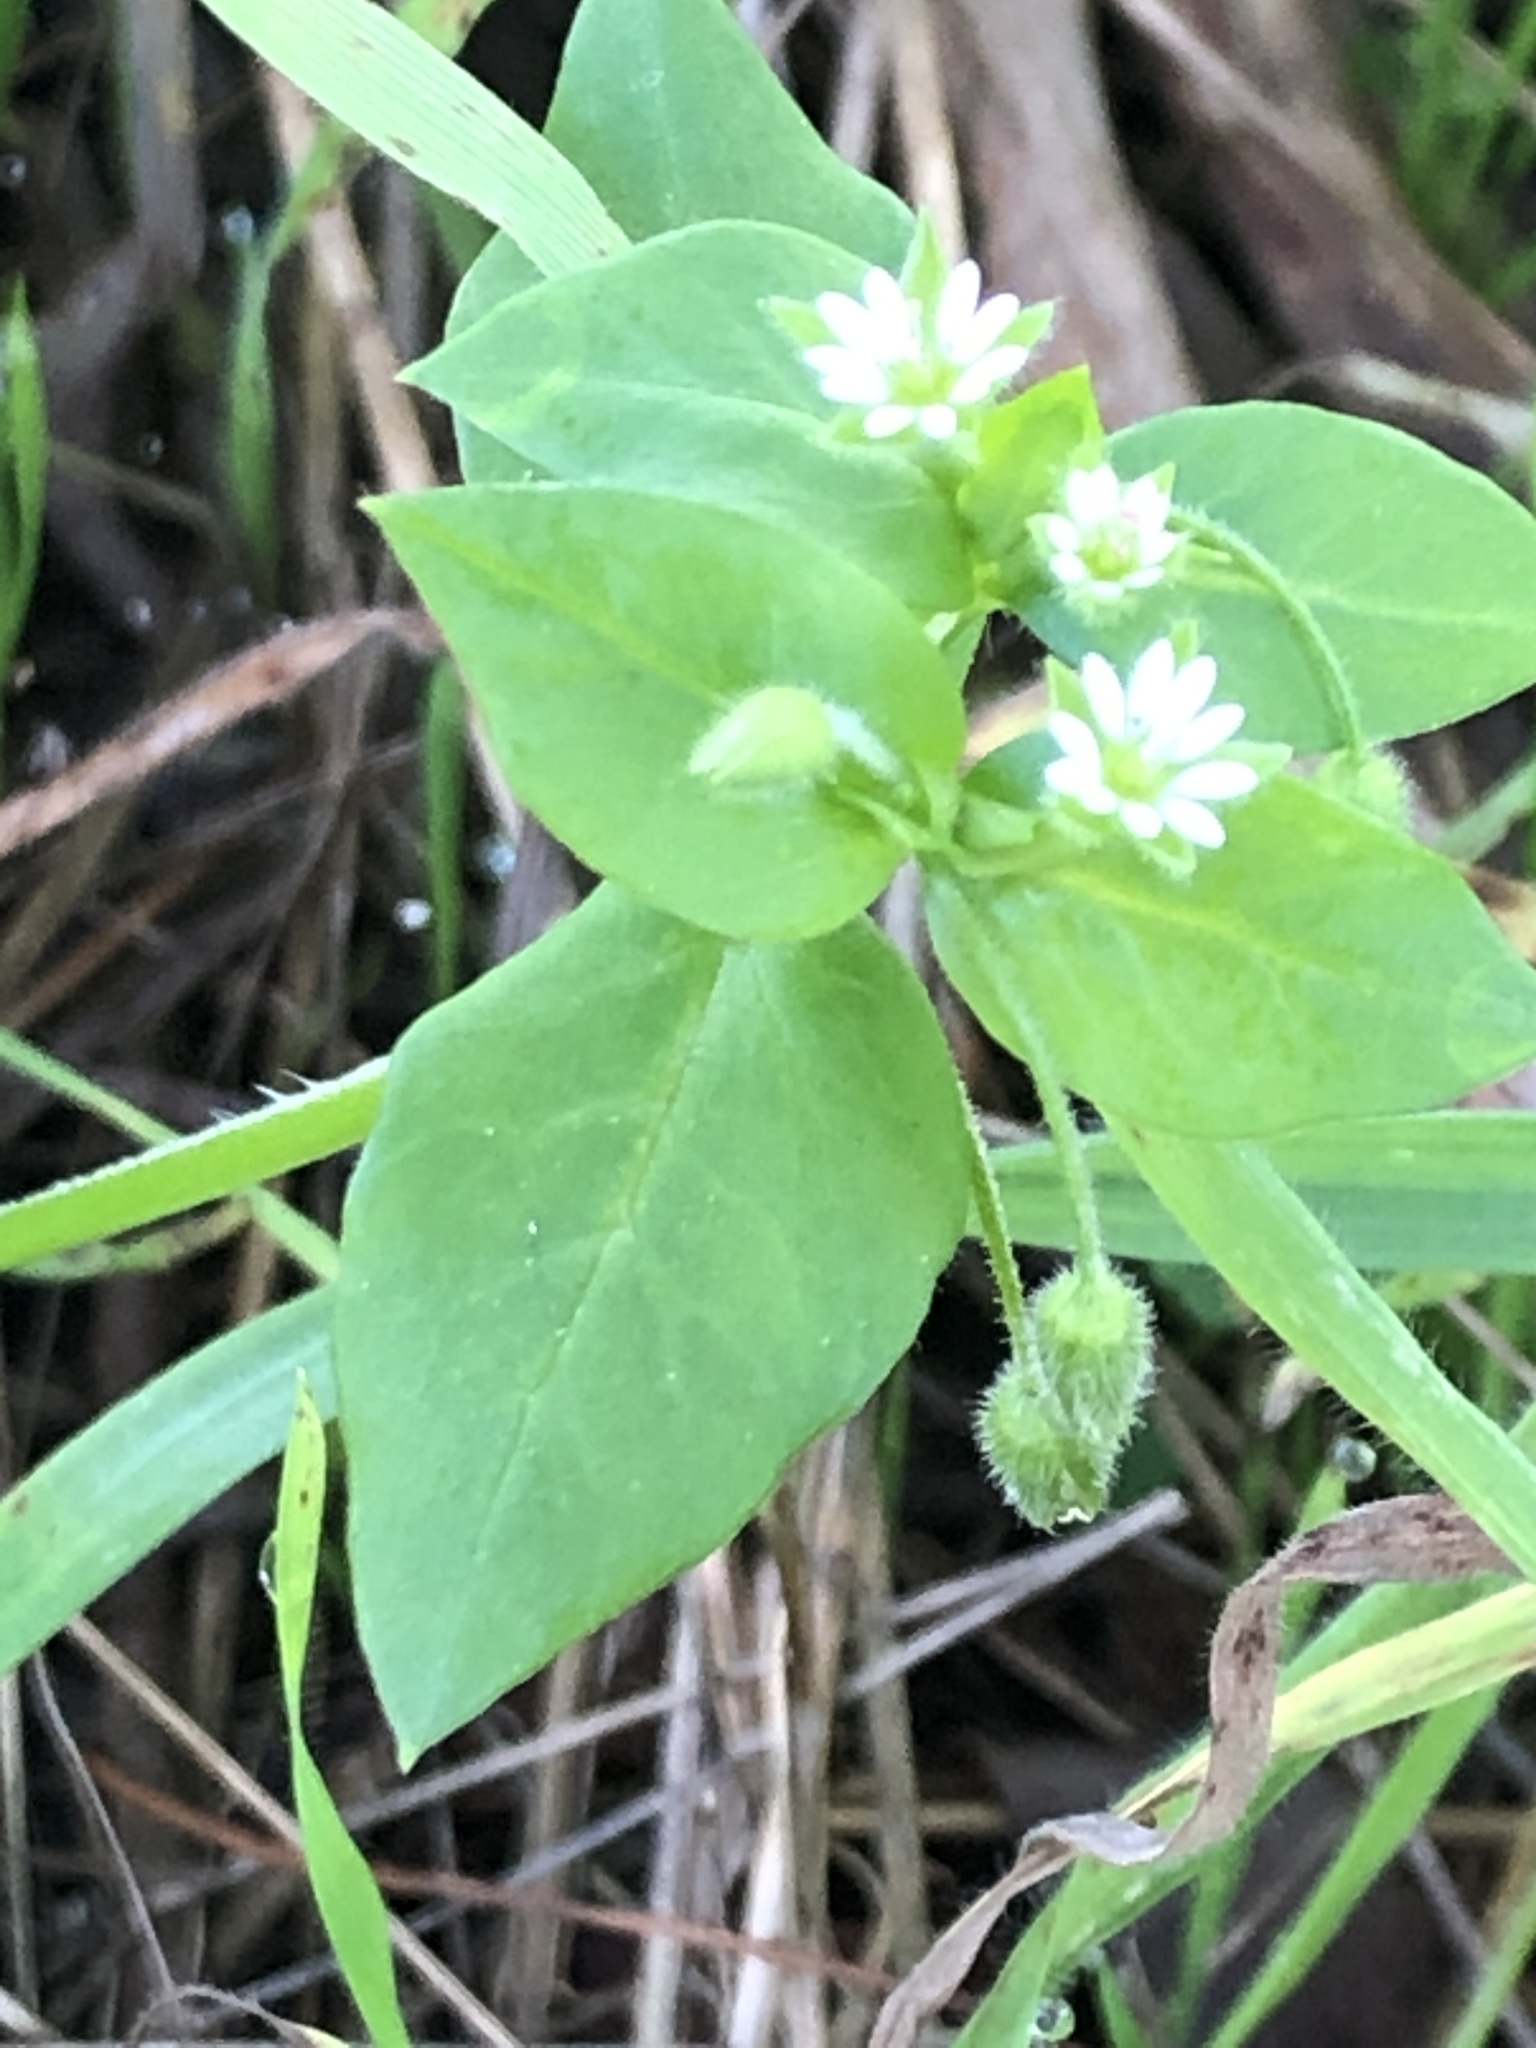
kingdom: Plantae
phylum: Tracheophyta
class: Magnoliopsida
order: Caryophyllales
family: Caryophyllaceae
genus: Stellaria
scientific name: Stellaria media
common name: Common chickweed
